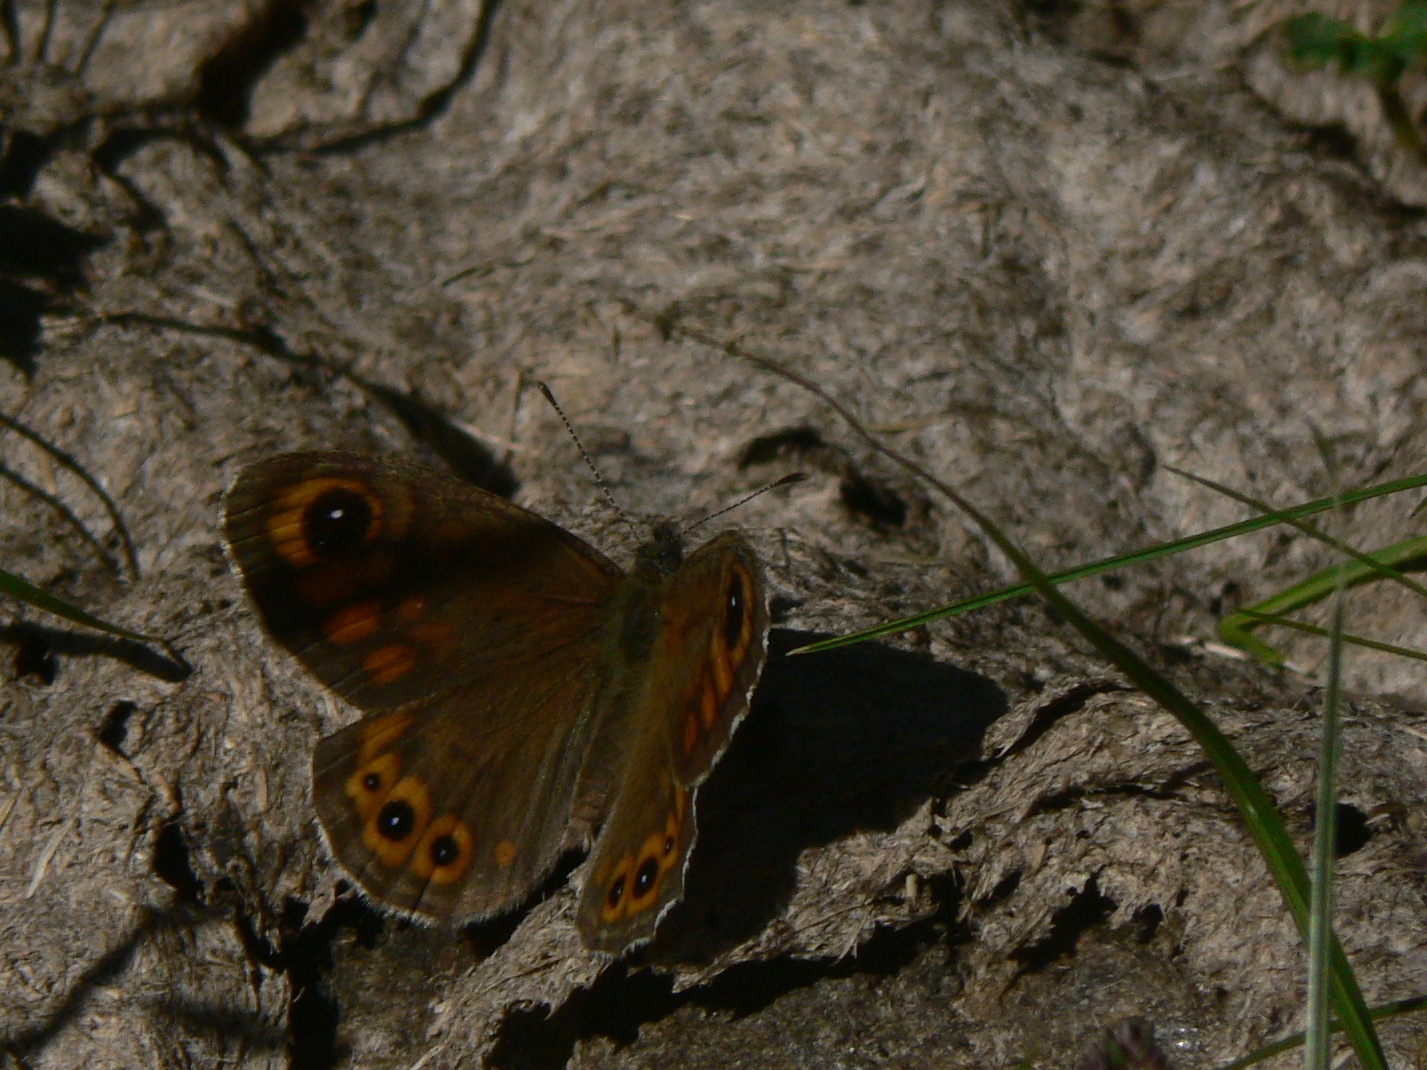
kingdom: Animalia
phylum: Arthropoda
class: Insecta
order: Lepidoptera
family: Nymphalidae
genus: Pararge
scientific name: Pararge Lasiommata maera
